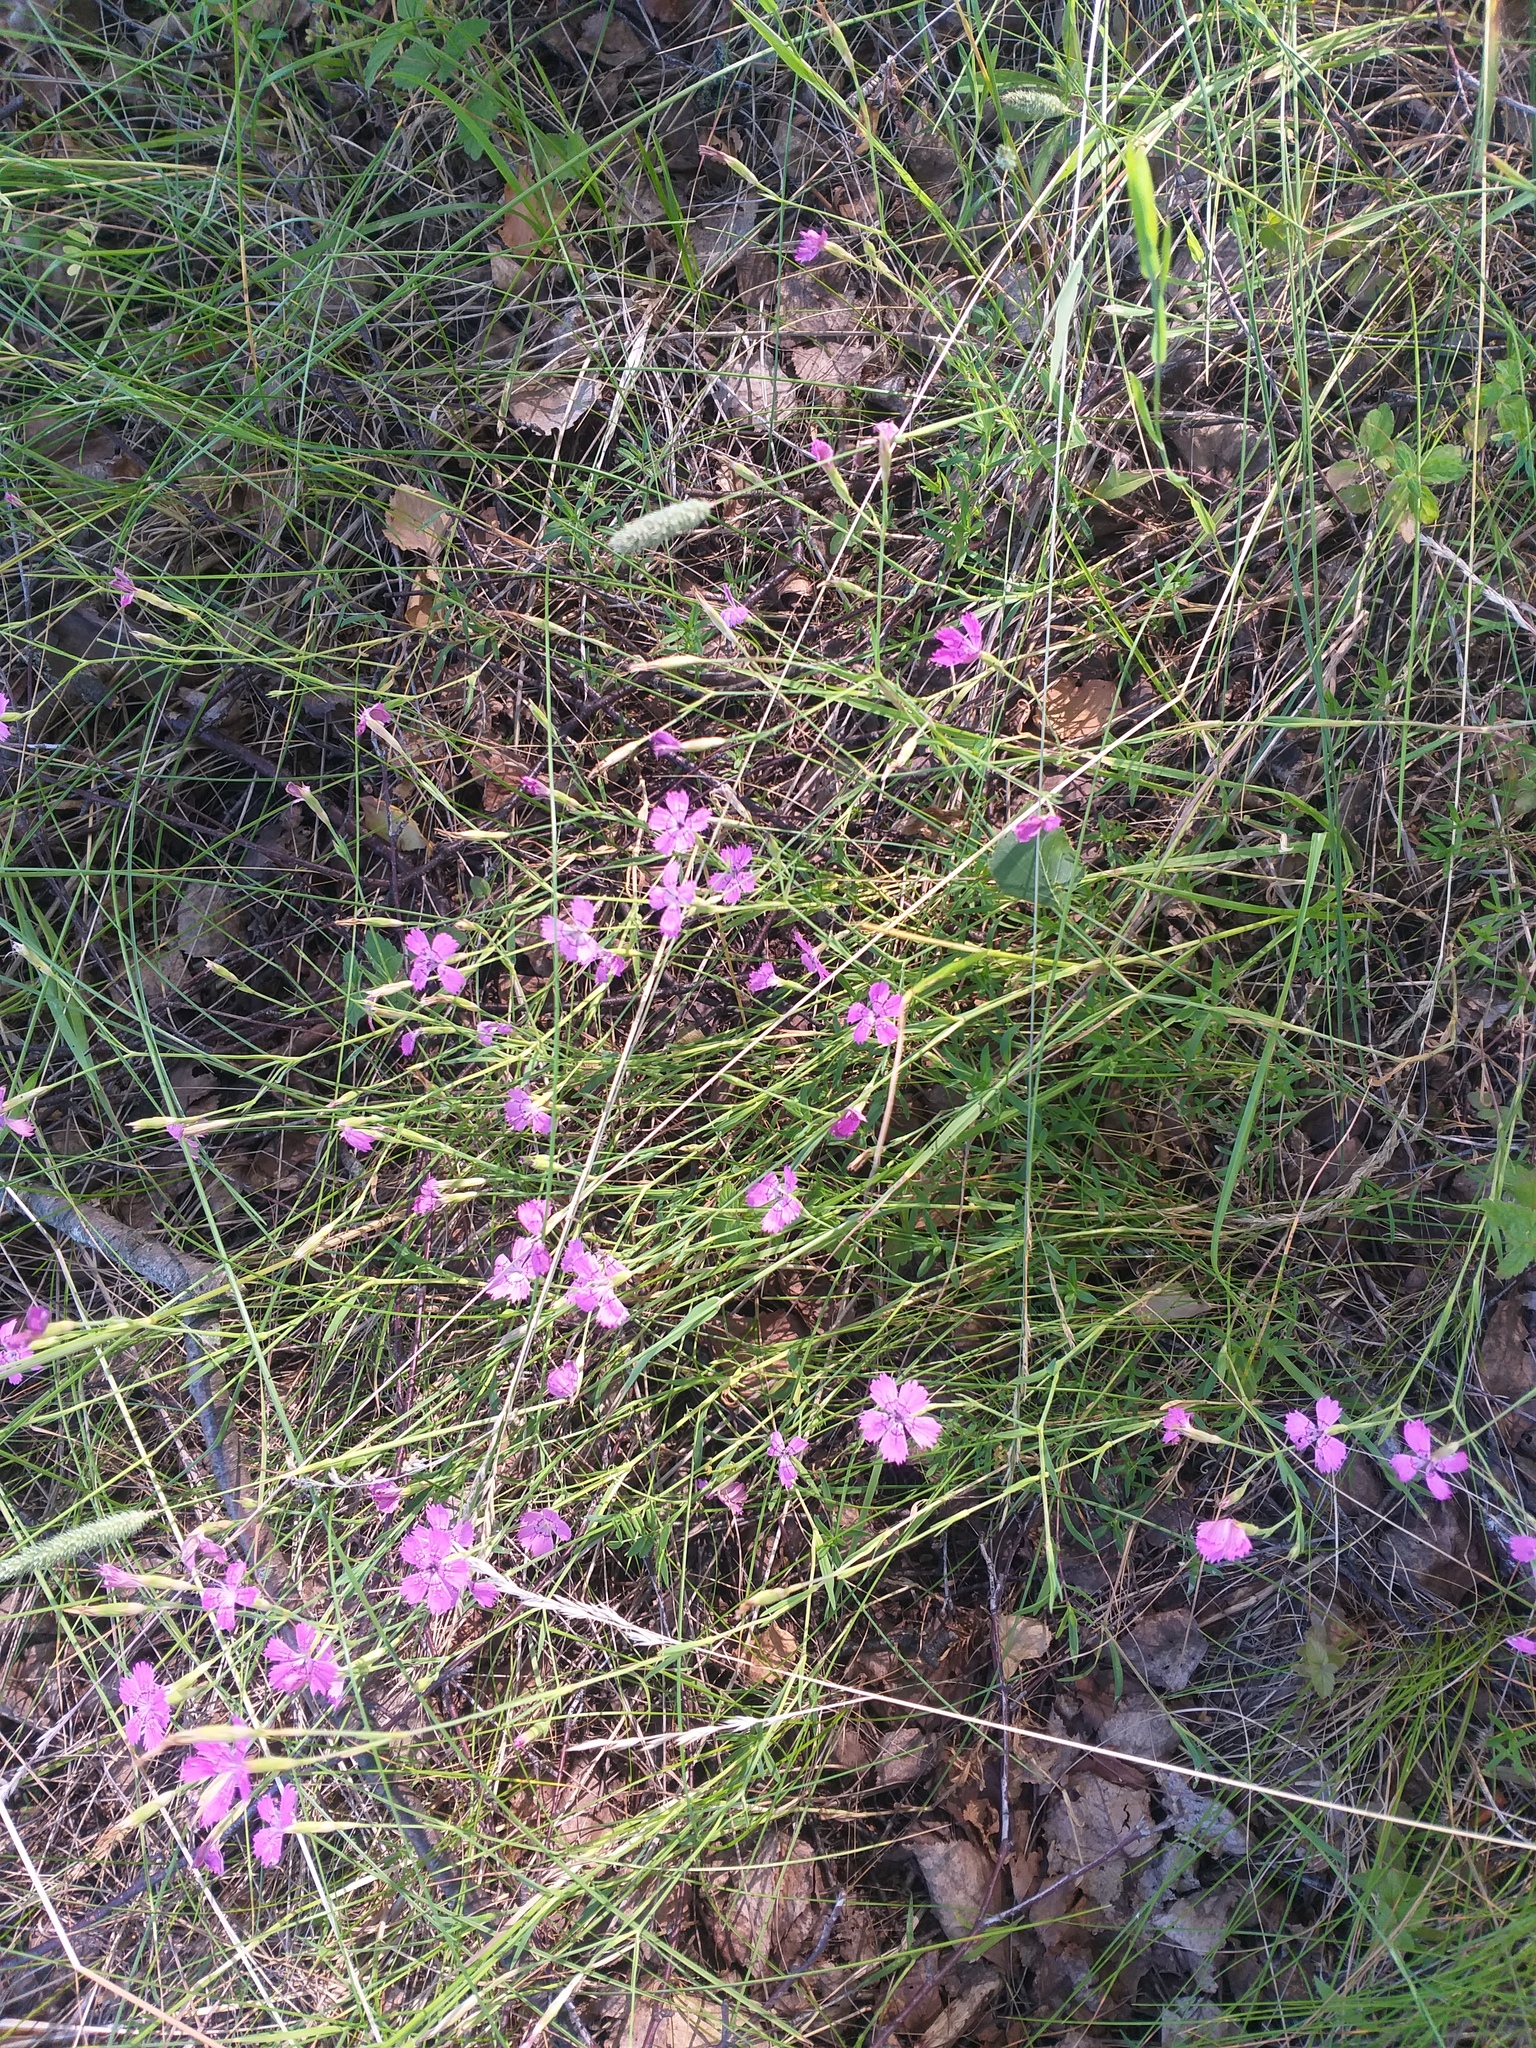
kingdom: Plantae
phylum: Tracheophyta
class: Magnoliopsida
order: Caryophyllales
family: Caryophyllaceae
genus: Dianthus
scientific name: Dianthus deltoides
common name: Maiden pink
